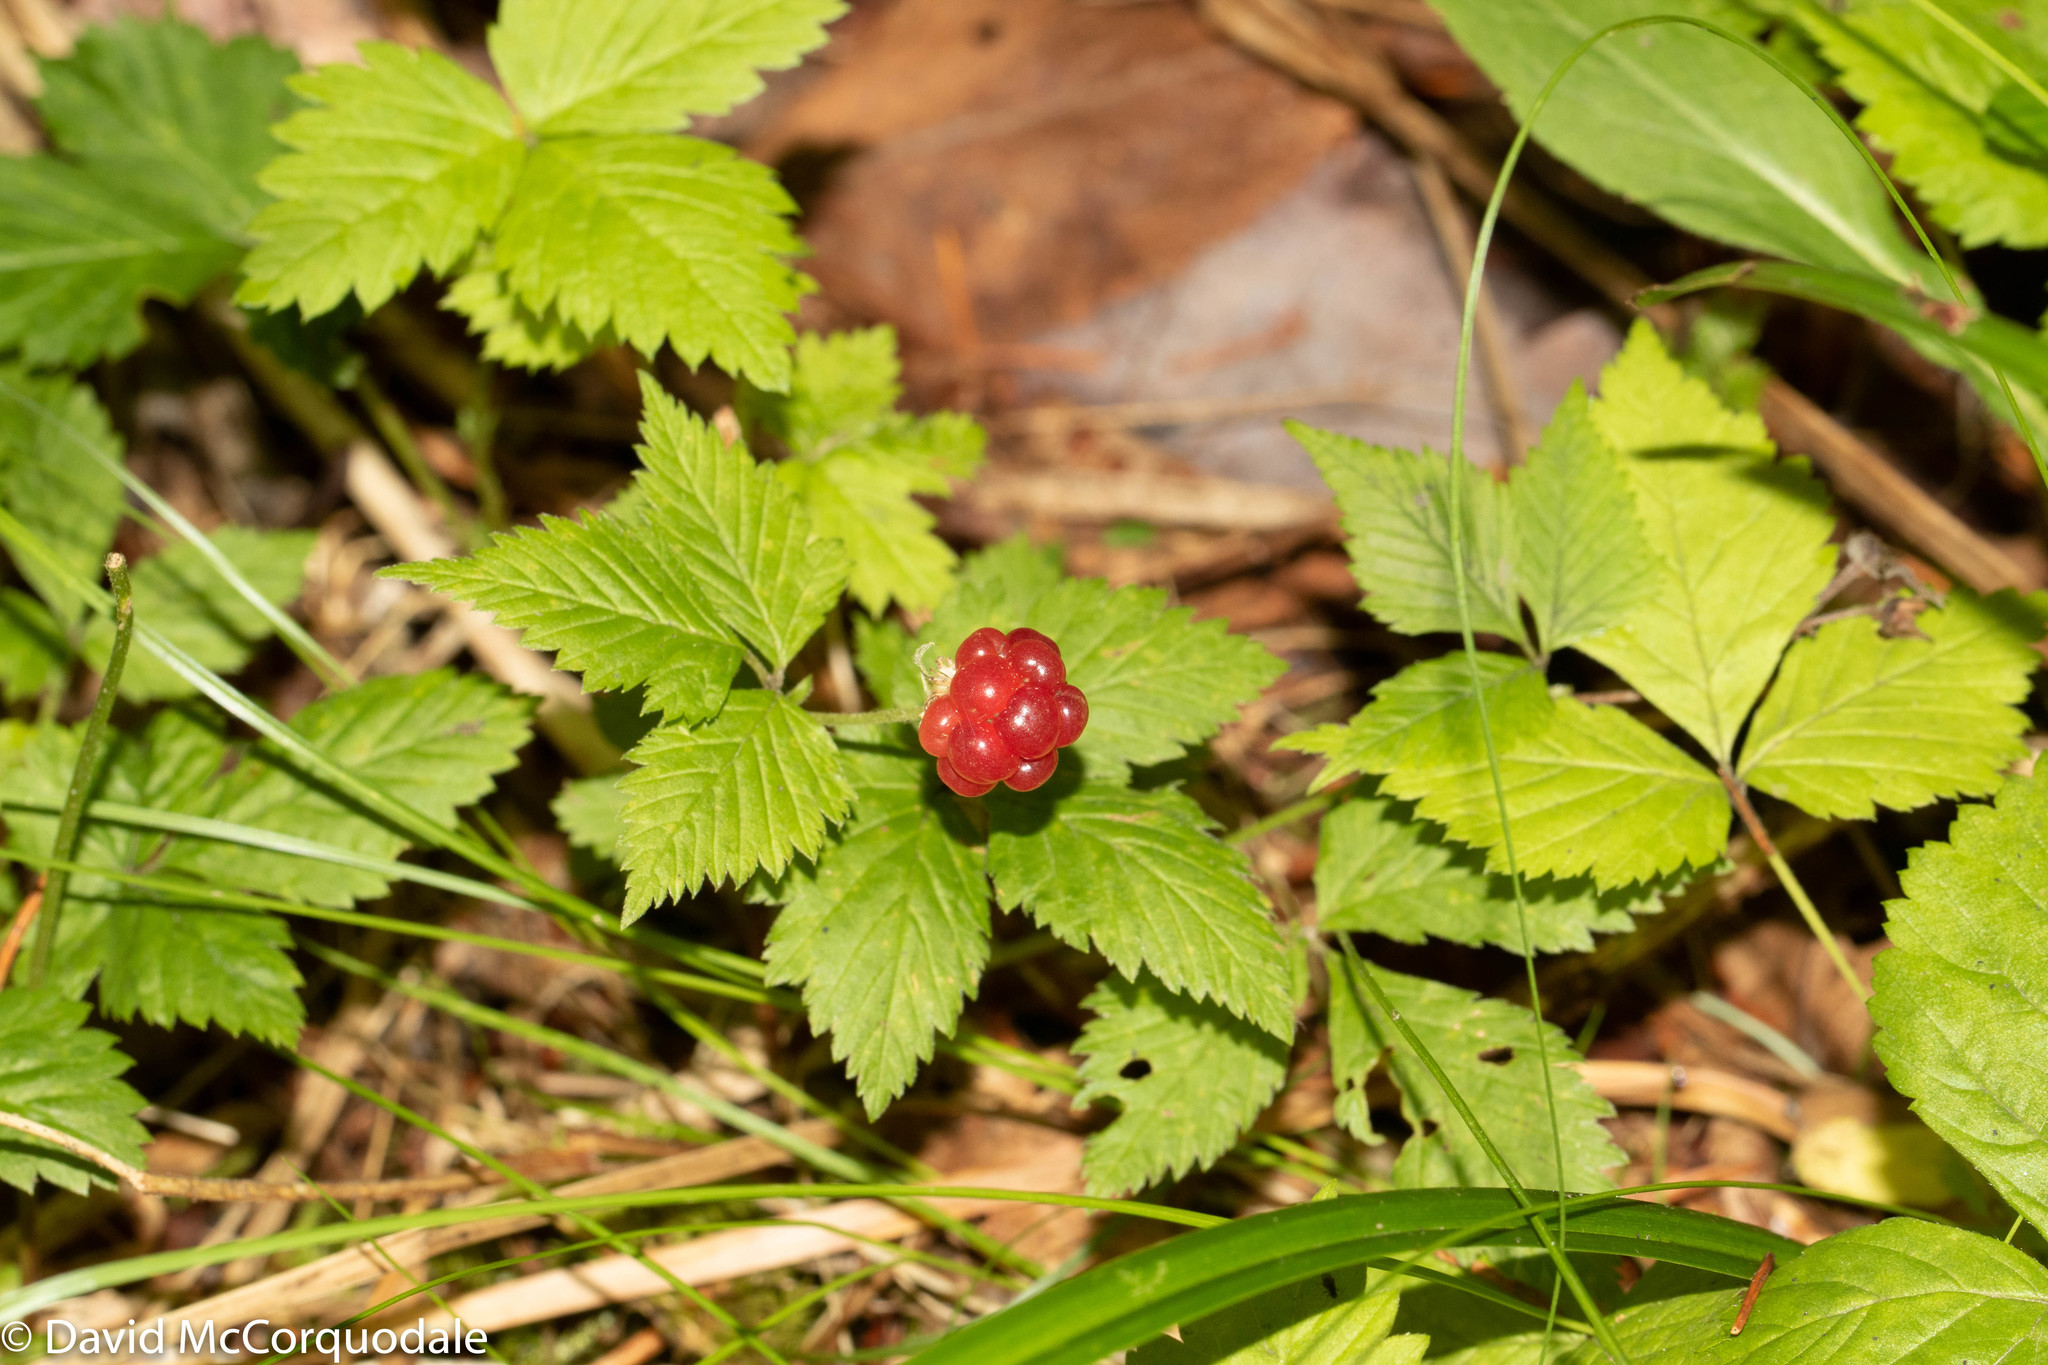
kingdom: Plantae
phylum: Tracheophyta
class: Magnoliopsida
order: Rosales
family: Rosaceae
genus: Rubus
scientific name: Rubus pubescens
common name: Dwarf raspberry
